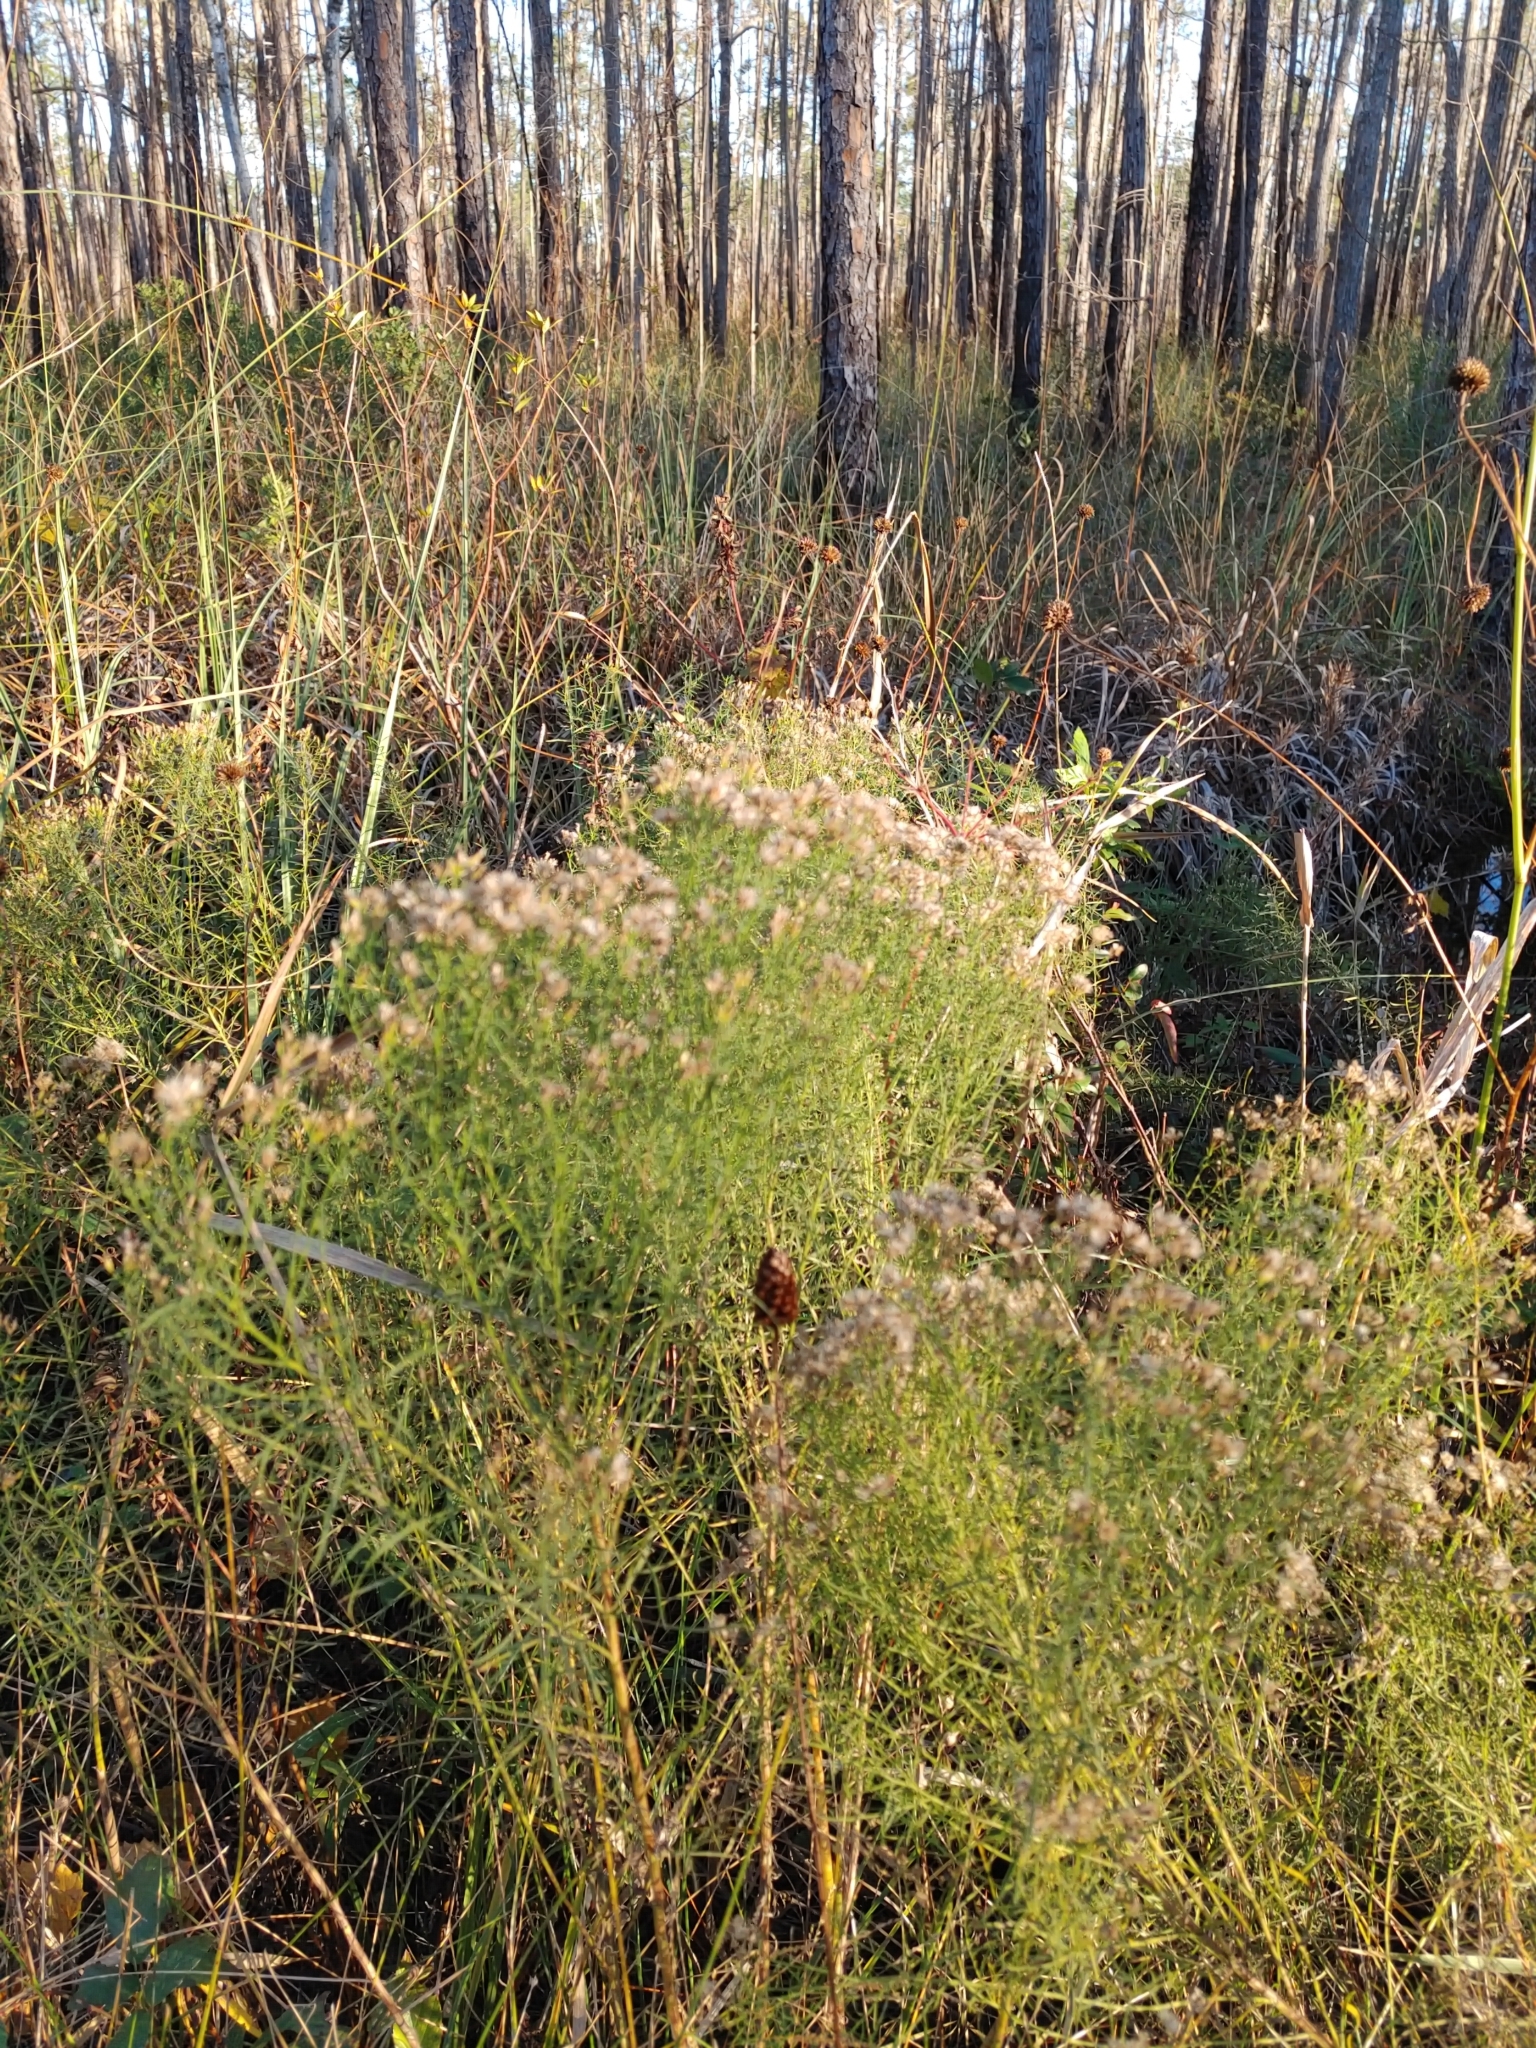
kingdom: Plantae
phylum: Tracheophyta
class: Magnoliopsida
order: Asterales
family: Asteraceae
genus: Euthamia
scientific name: Euthamia caroliniana
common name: Coastal plain goldentop
